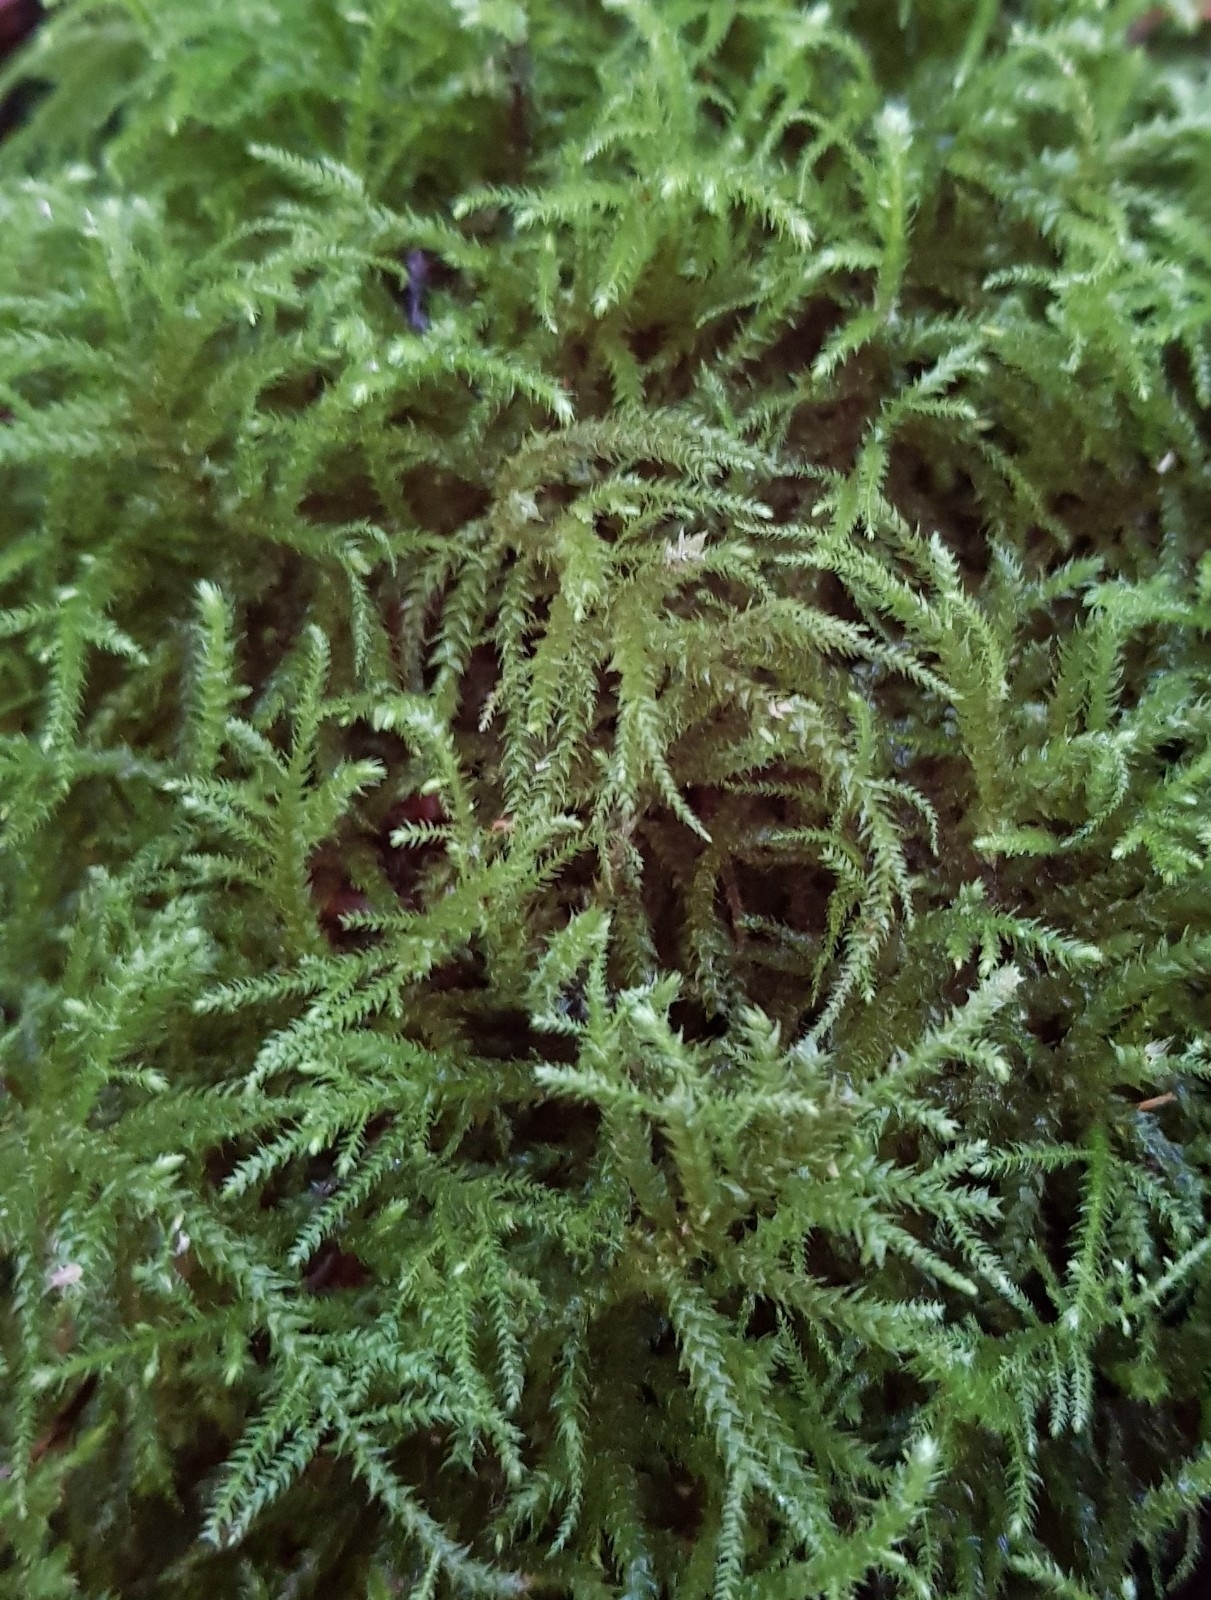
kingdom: Plantae
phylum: Bryophyta
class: Bryopsida
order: Hypnales
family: Brachytheciaceae
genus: Eurhynchium
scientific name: Eurhynchium striatum
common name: Common striated feather-moss
